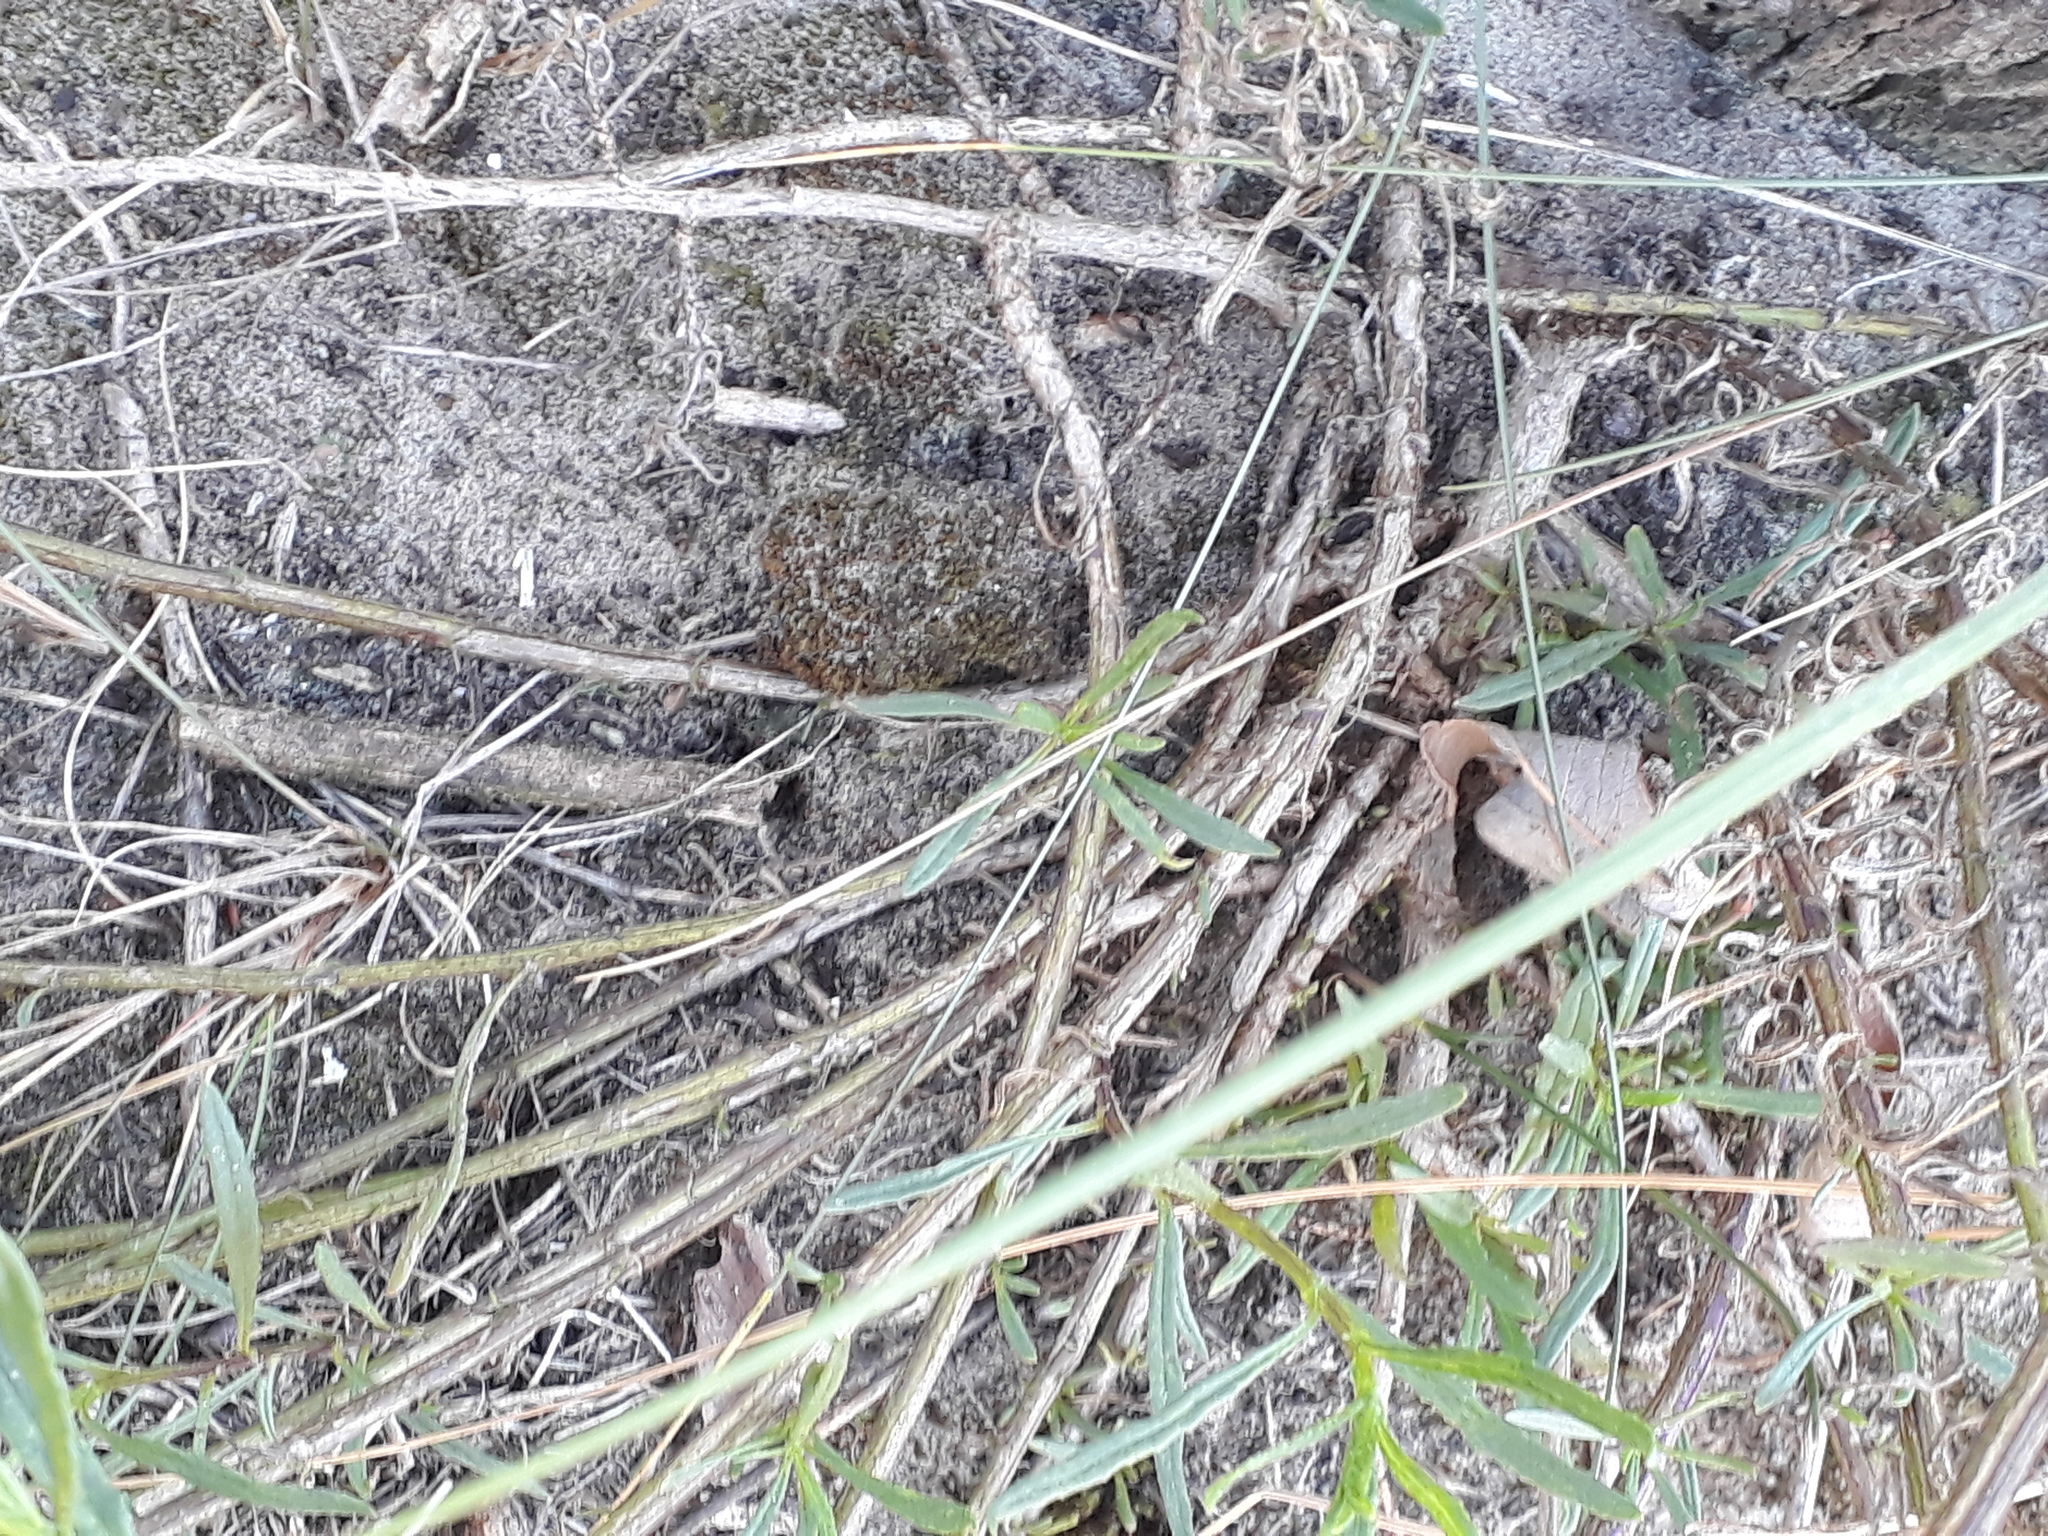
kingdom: Plantae
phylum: Tracheophyta
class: Magnoliopsida
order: Asterales
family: Asteraceae
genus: Senecio
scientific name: Senecio inaequidens
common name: Narrow-leaved ragwort
